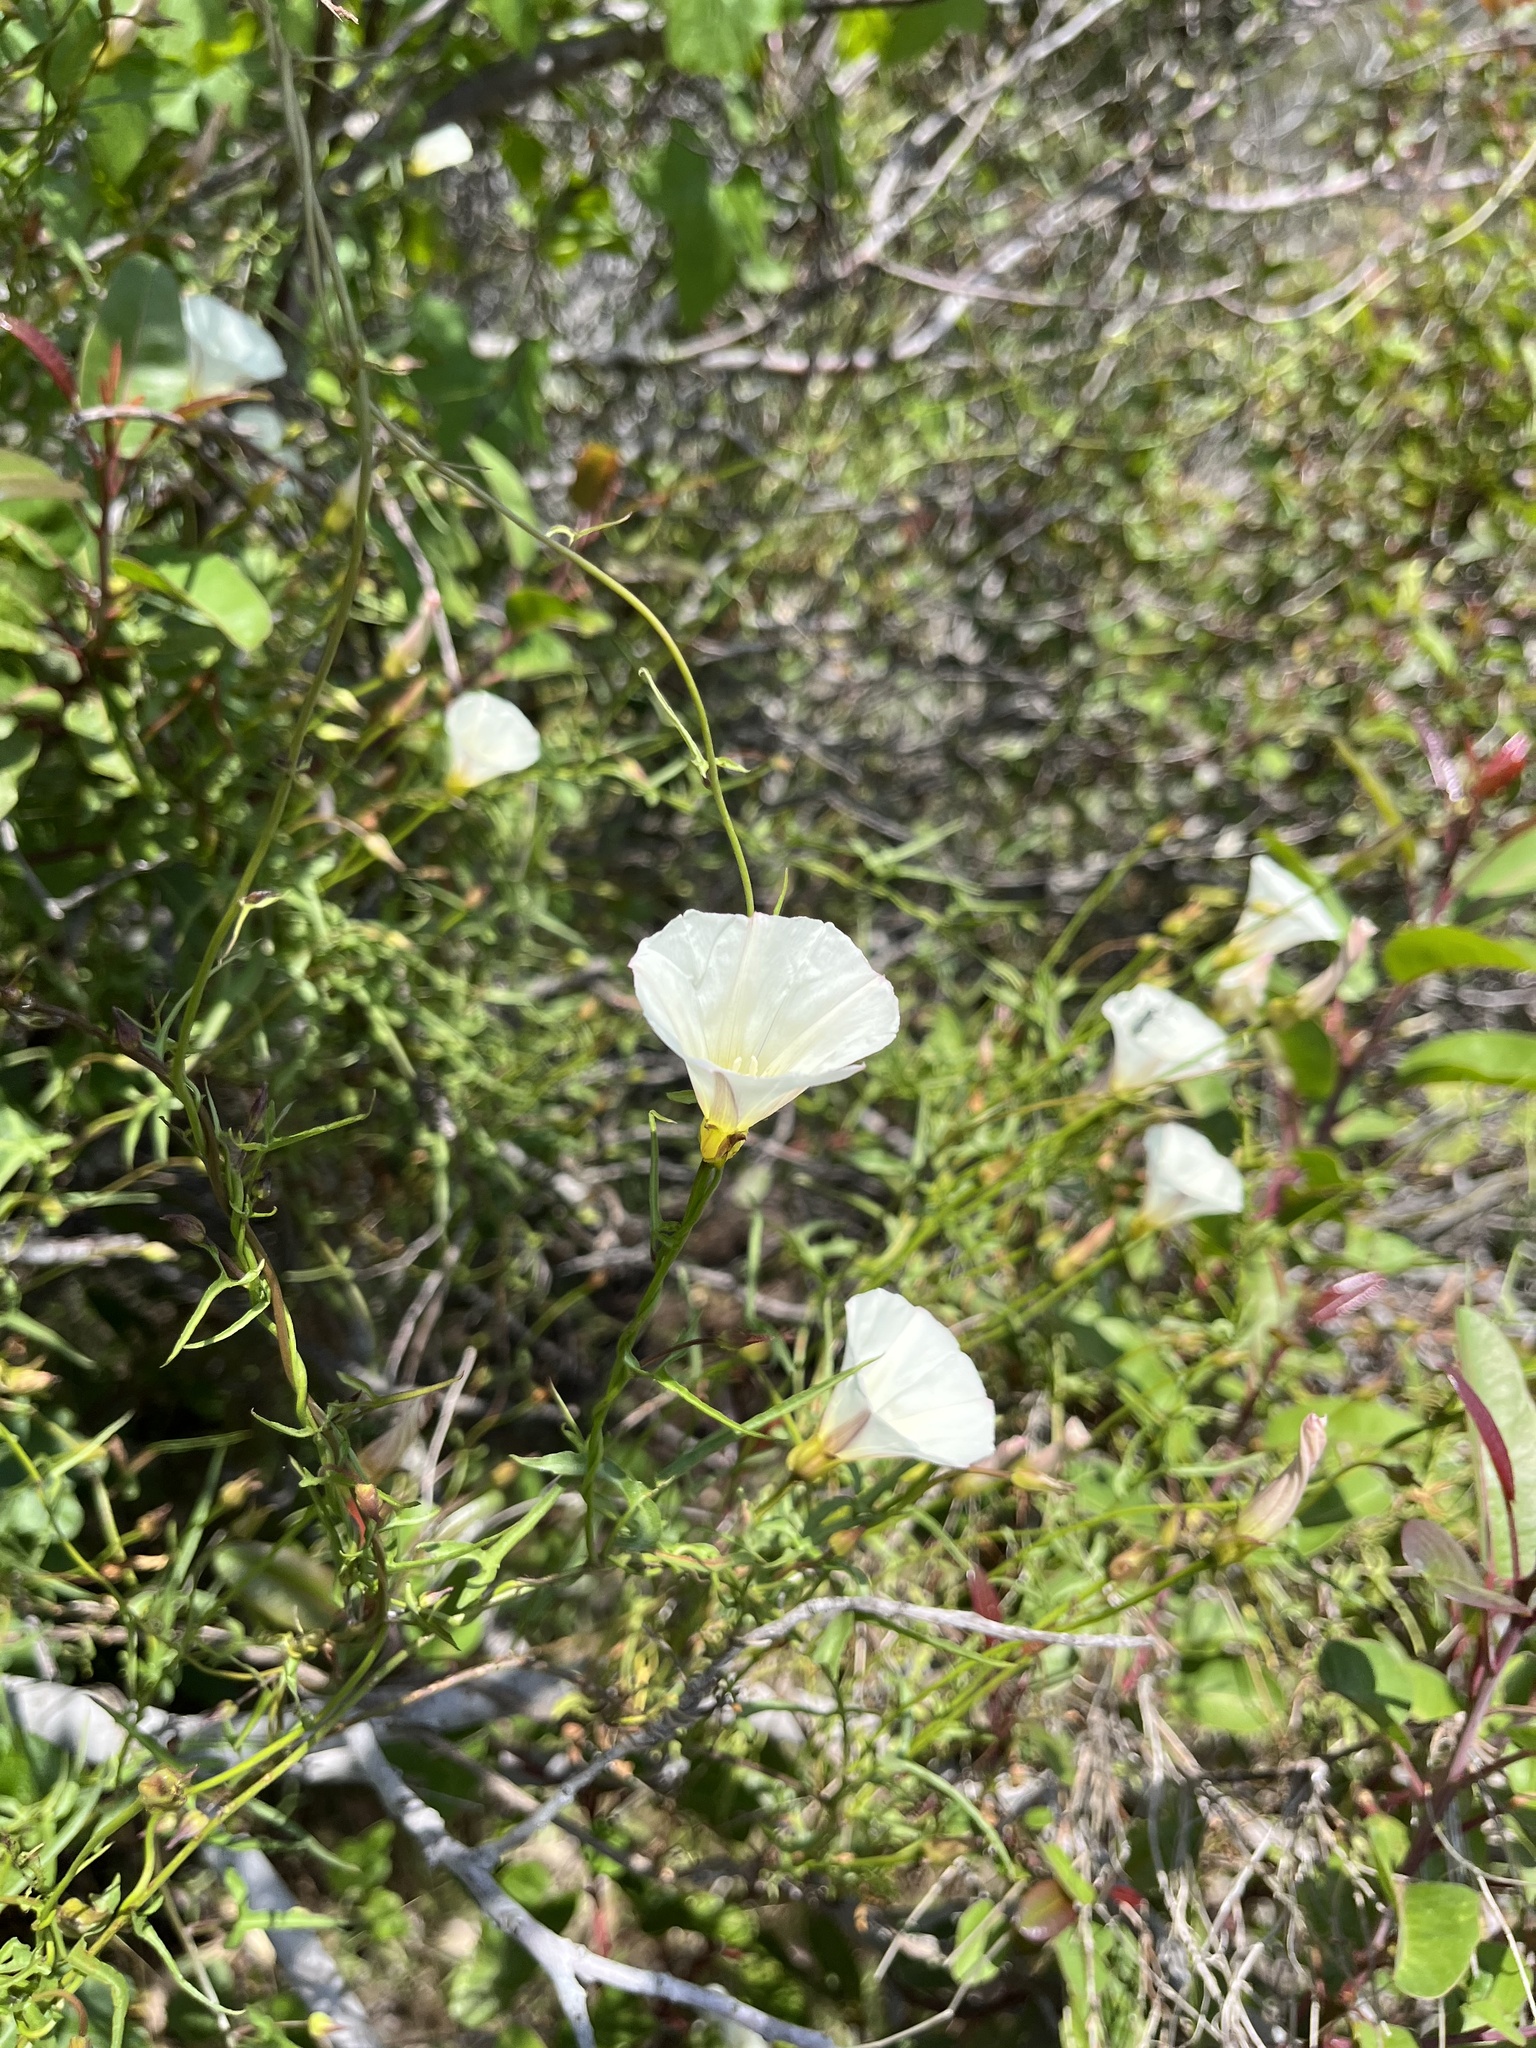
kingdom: Plantae
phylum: Tracheophyta
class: Magnoliopsida
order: Solanales
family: Convolvulaceae
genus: Calystegia
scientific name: Calystegia macrostegia
